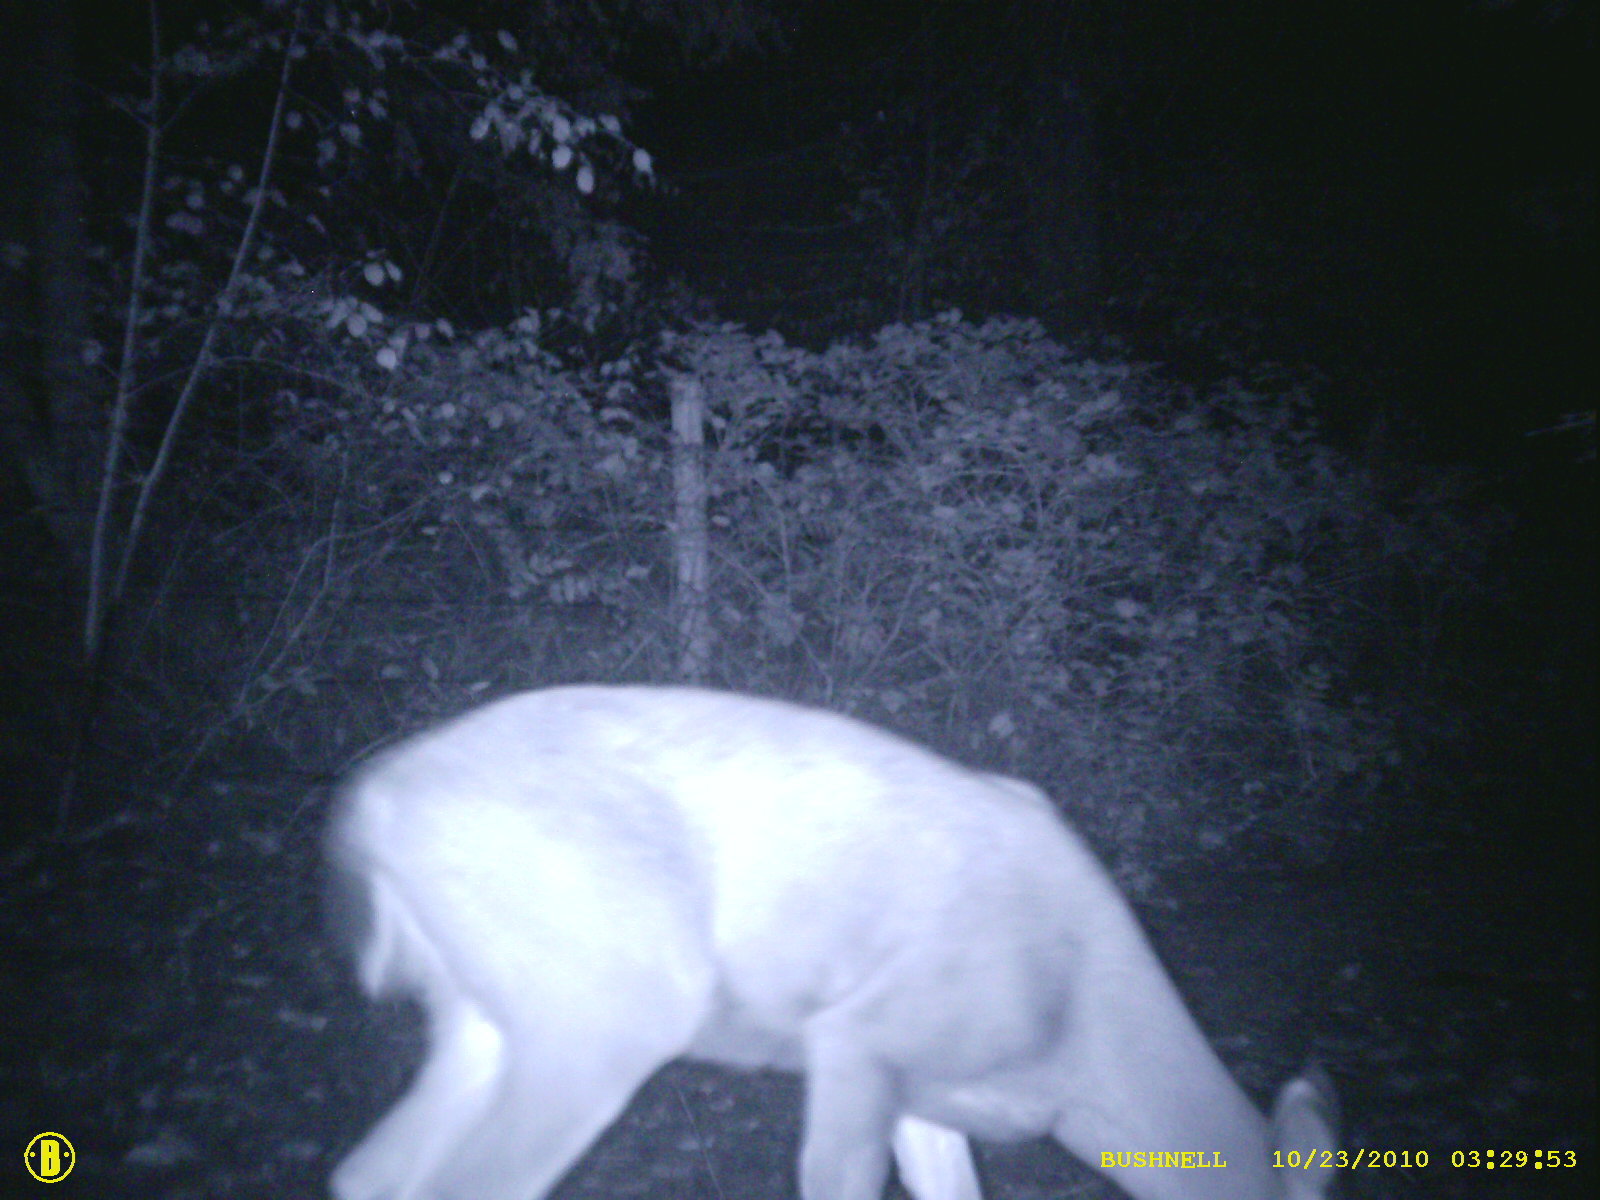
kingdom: Animalia
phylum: Chordata
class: Mammalia
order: Artiodactyla
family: Cervidae
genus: Odocoileus
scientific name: Odocoileus hemionus
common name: Mule deer
